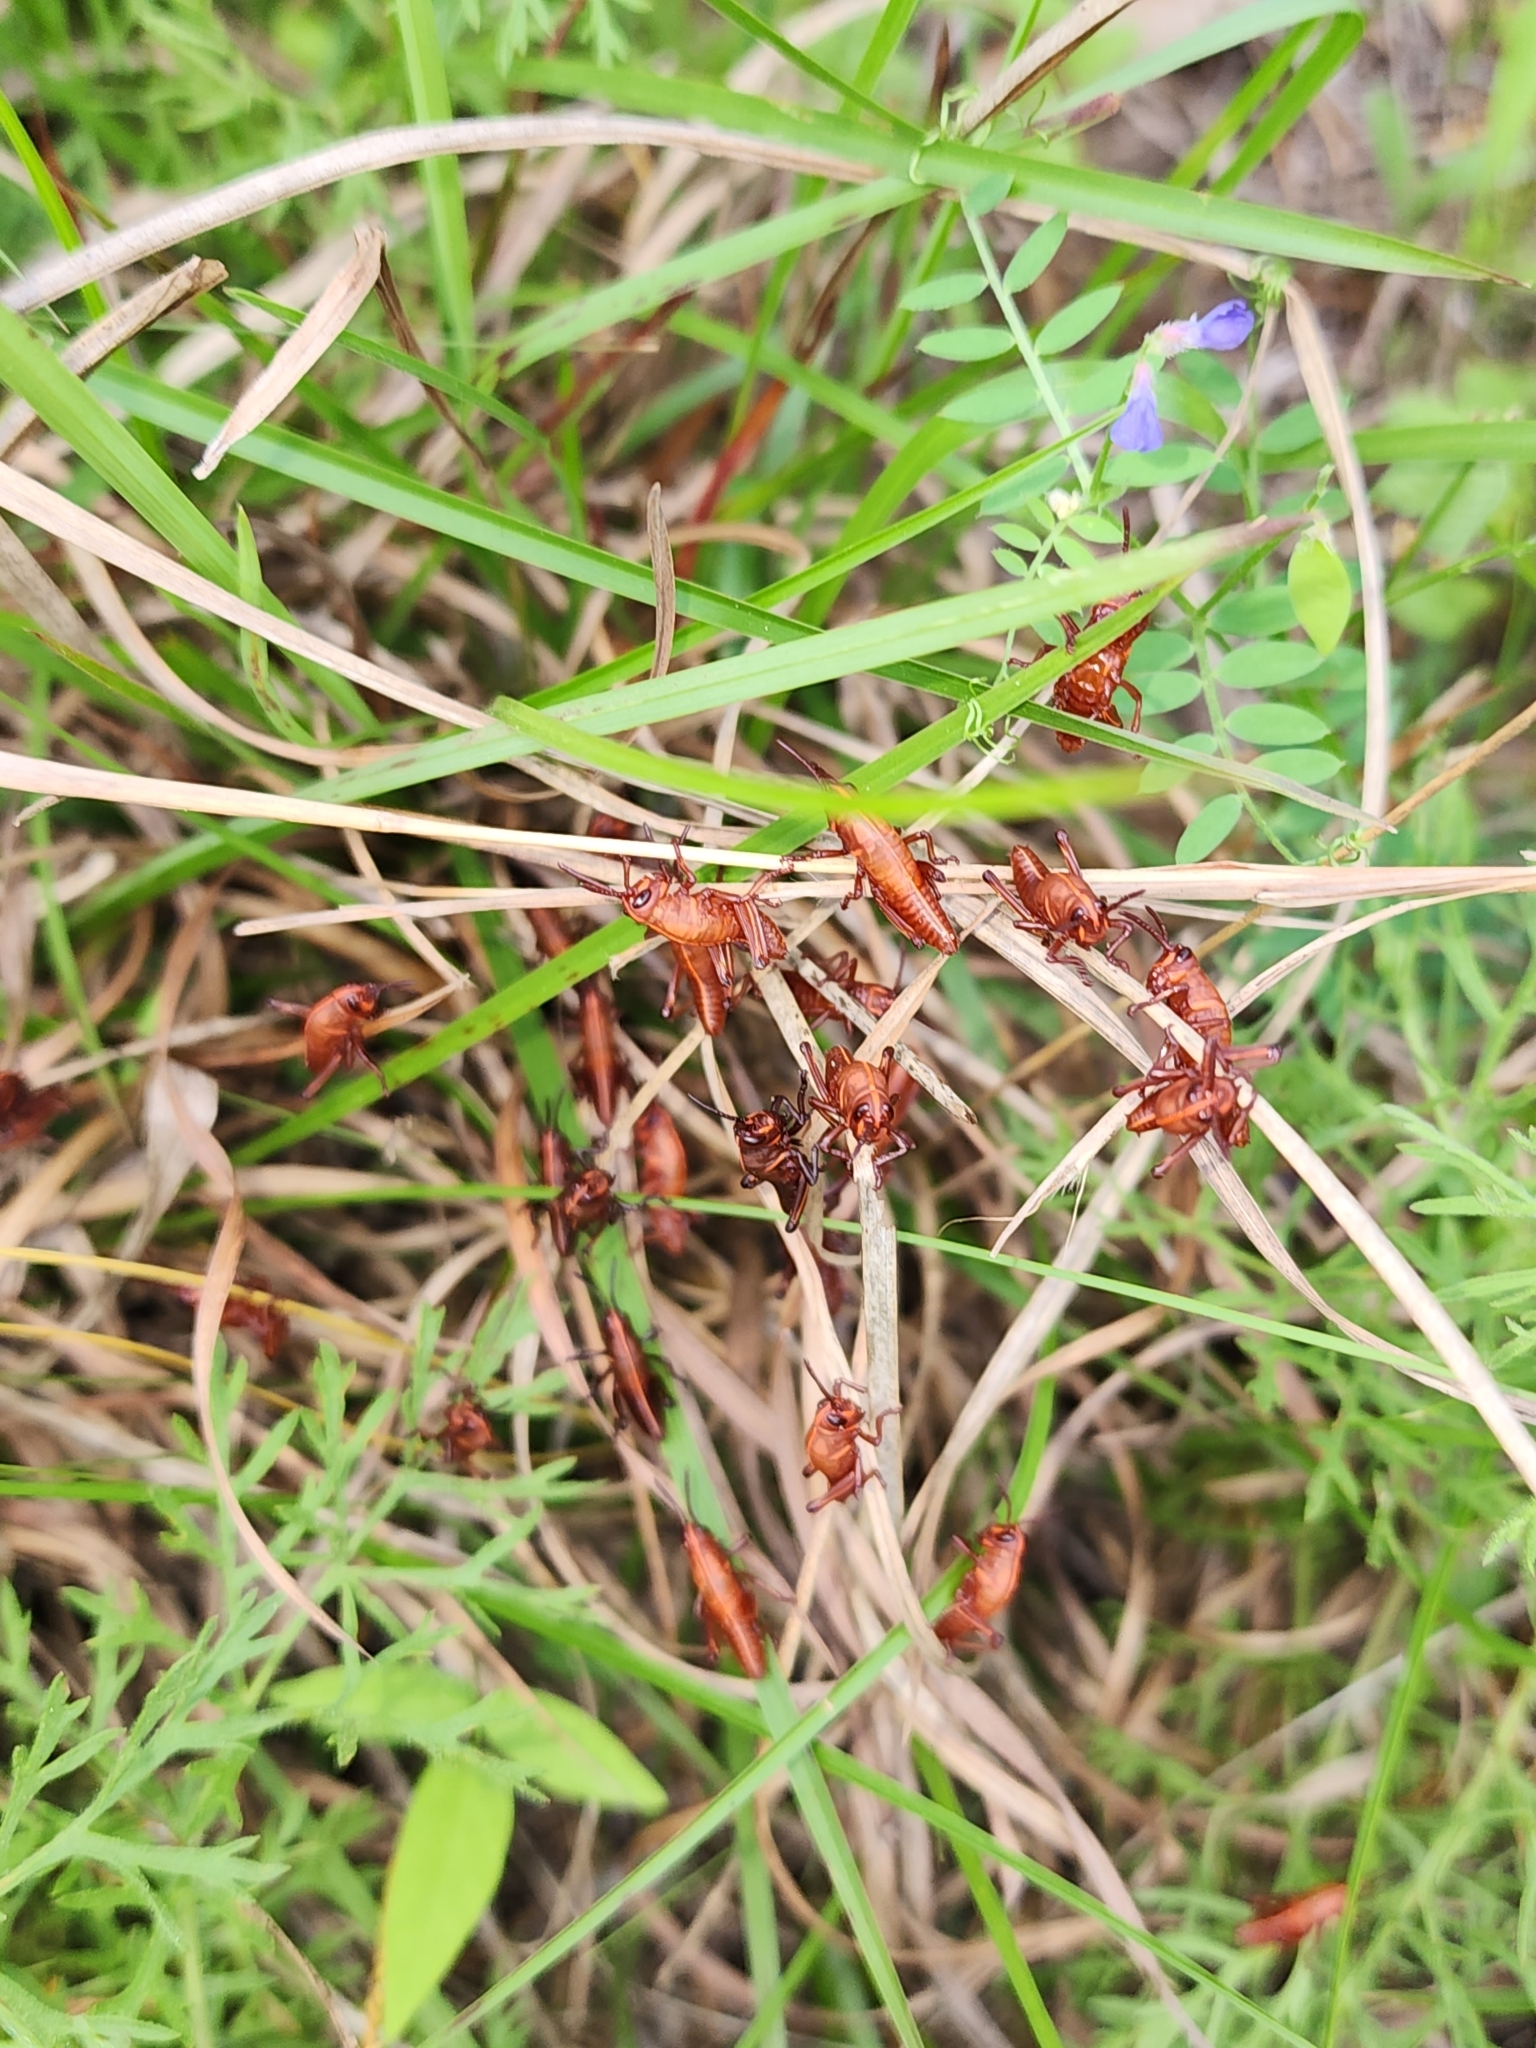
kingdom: Animalia
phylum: Arthropoda
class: Insecta
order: Orthoptera
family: Romaleidae
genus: Romalea
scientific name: Romalea microptera
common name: Eastern lubber grasshopper
